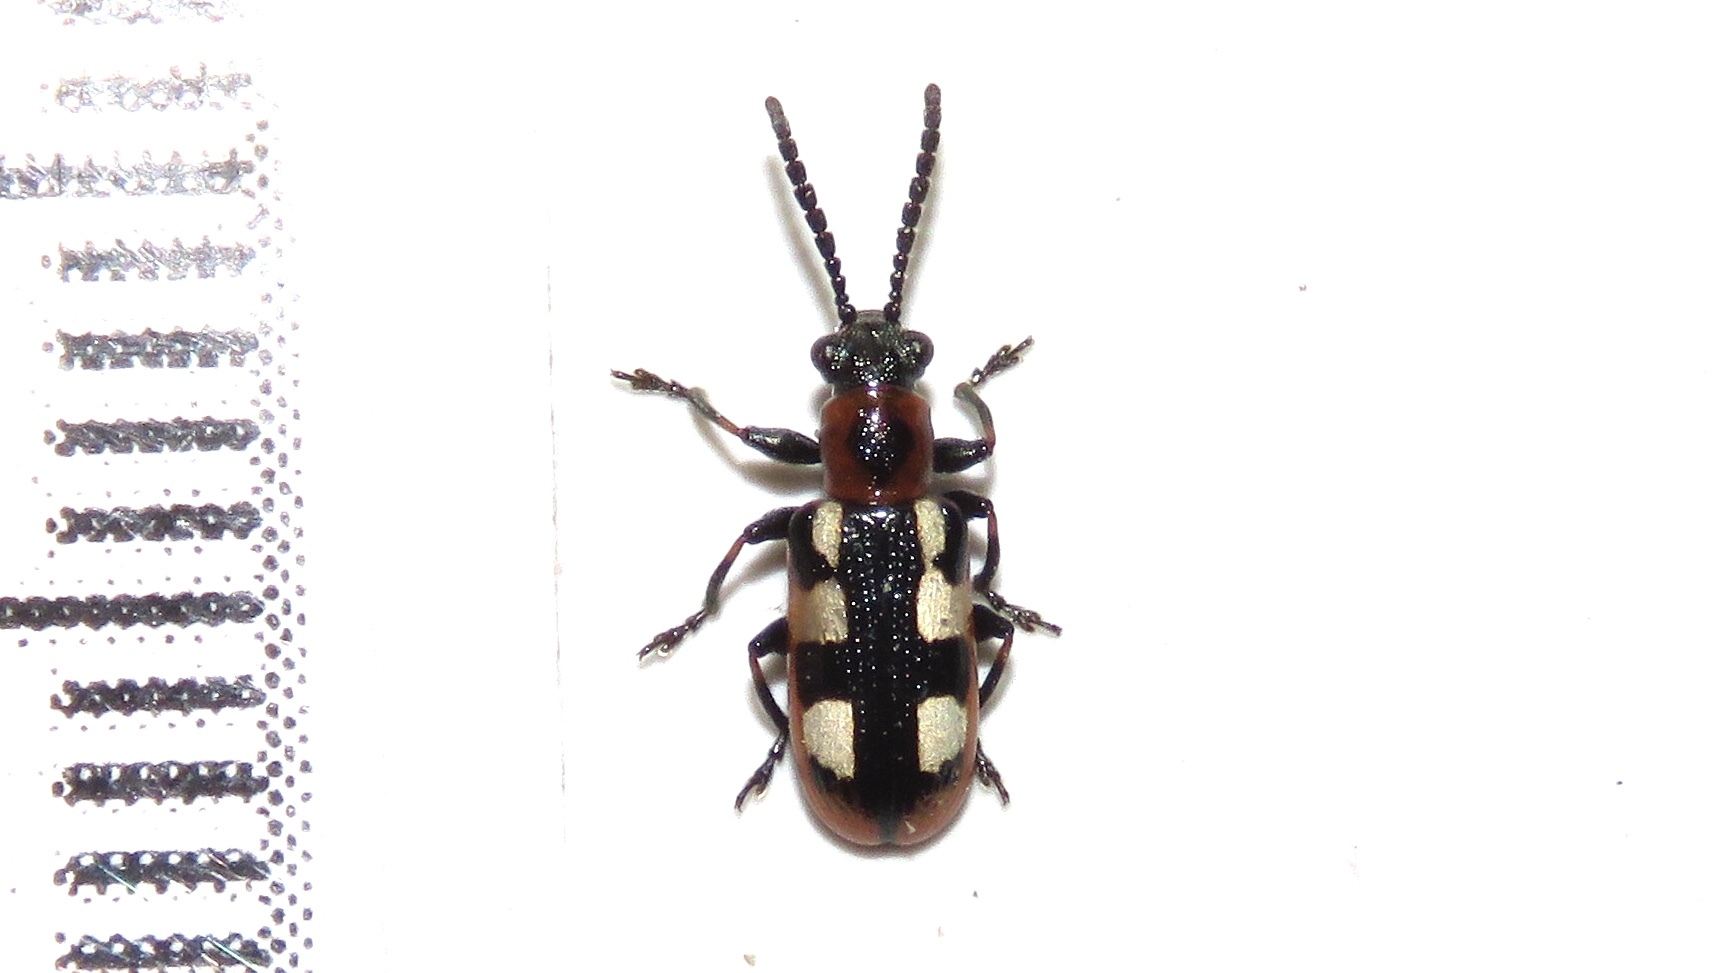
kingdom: Animalia
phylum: Arthropoda
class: Insecta
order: Coleoptera
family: Chrysomelidae
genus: Crioceris
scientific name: Crioceris asparagi
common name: Asparagus beetle
